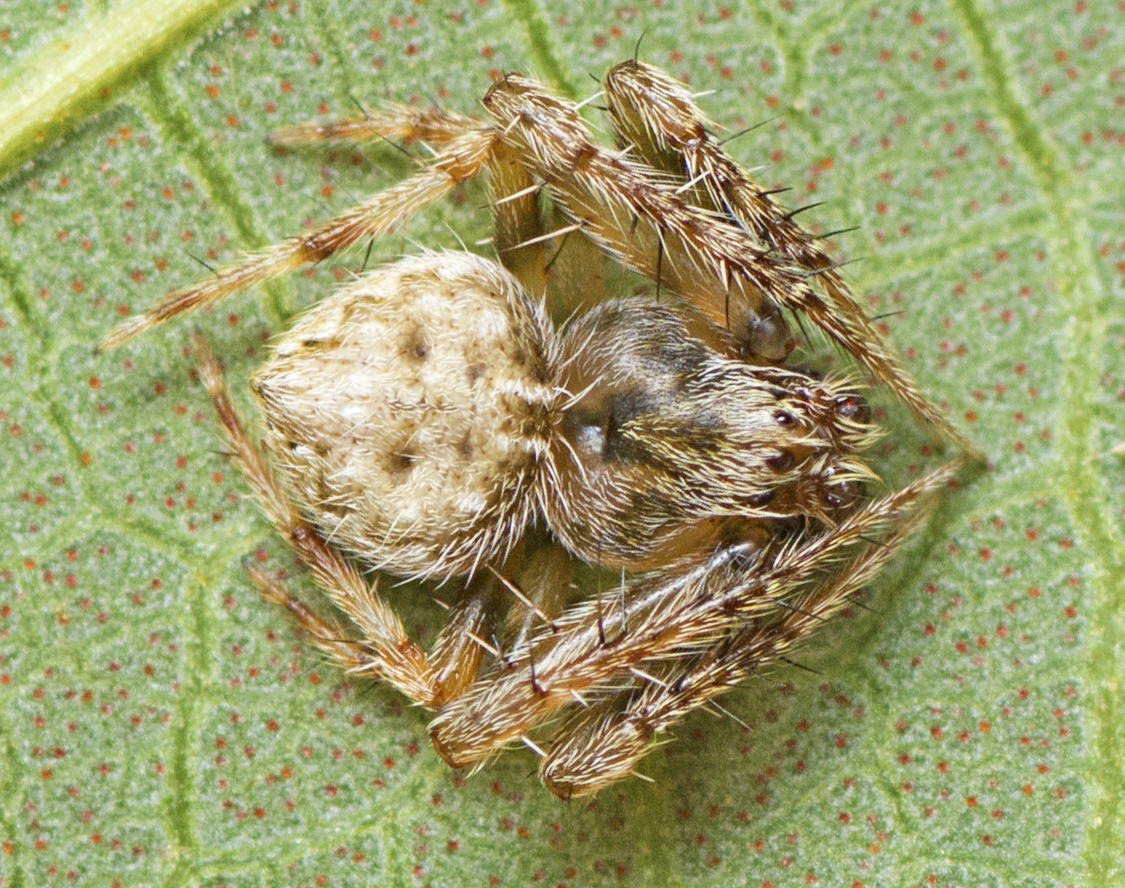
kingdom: Animalia
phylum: Arthropoda
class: Arachnida
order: Araneae
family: Araneidae
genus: Araneus
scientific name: Araneus acuminatus
